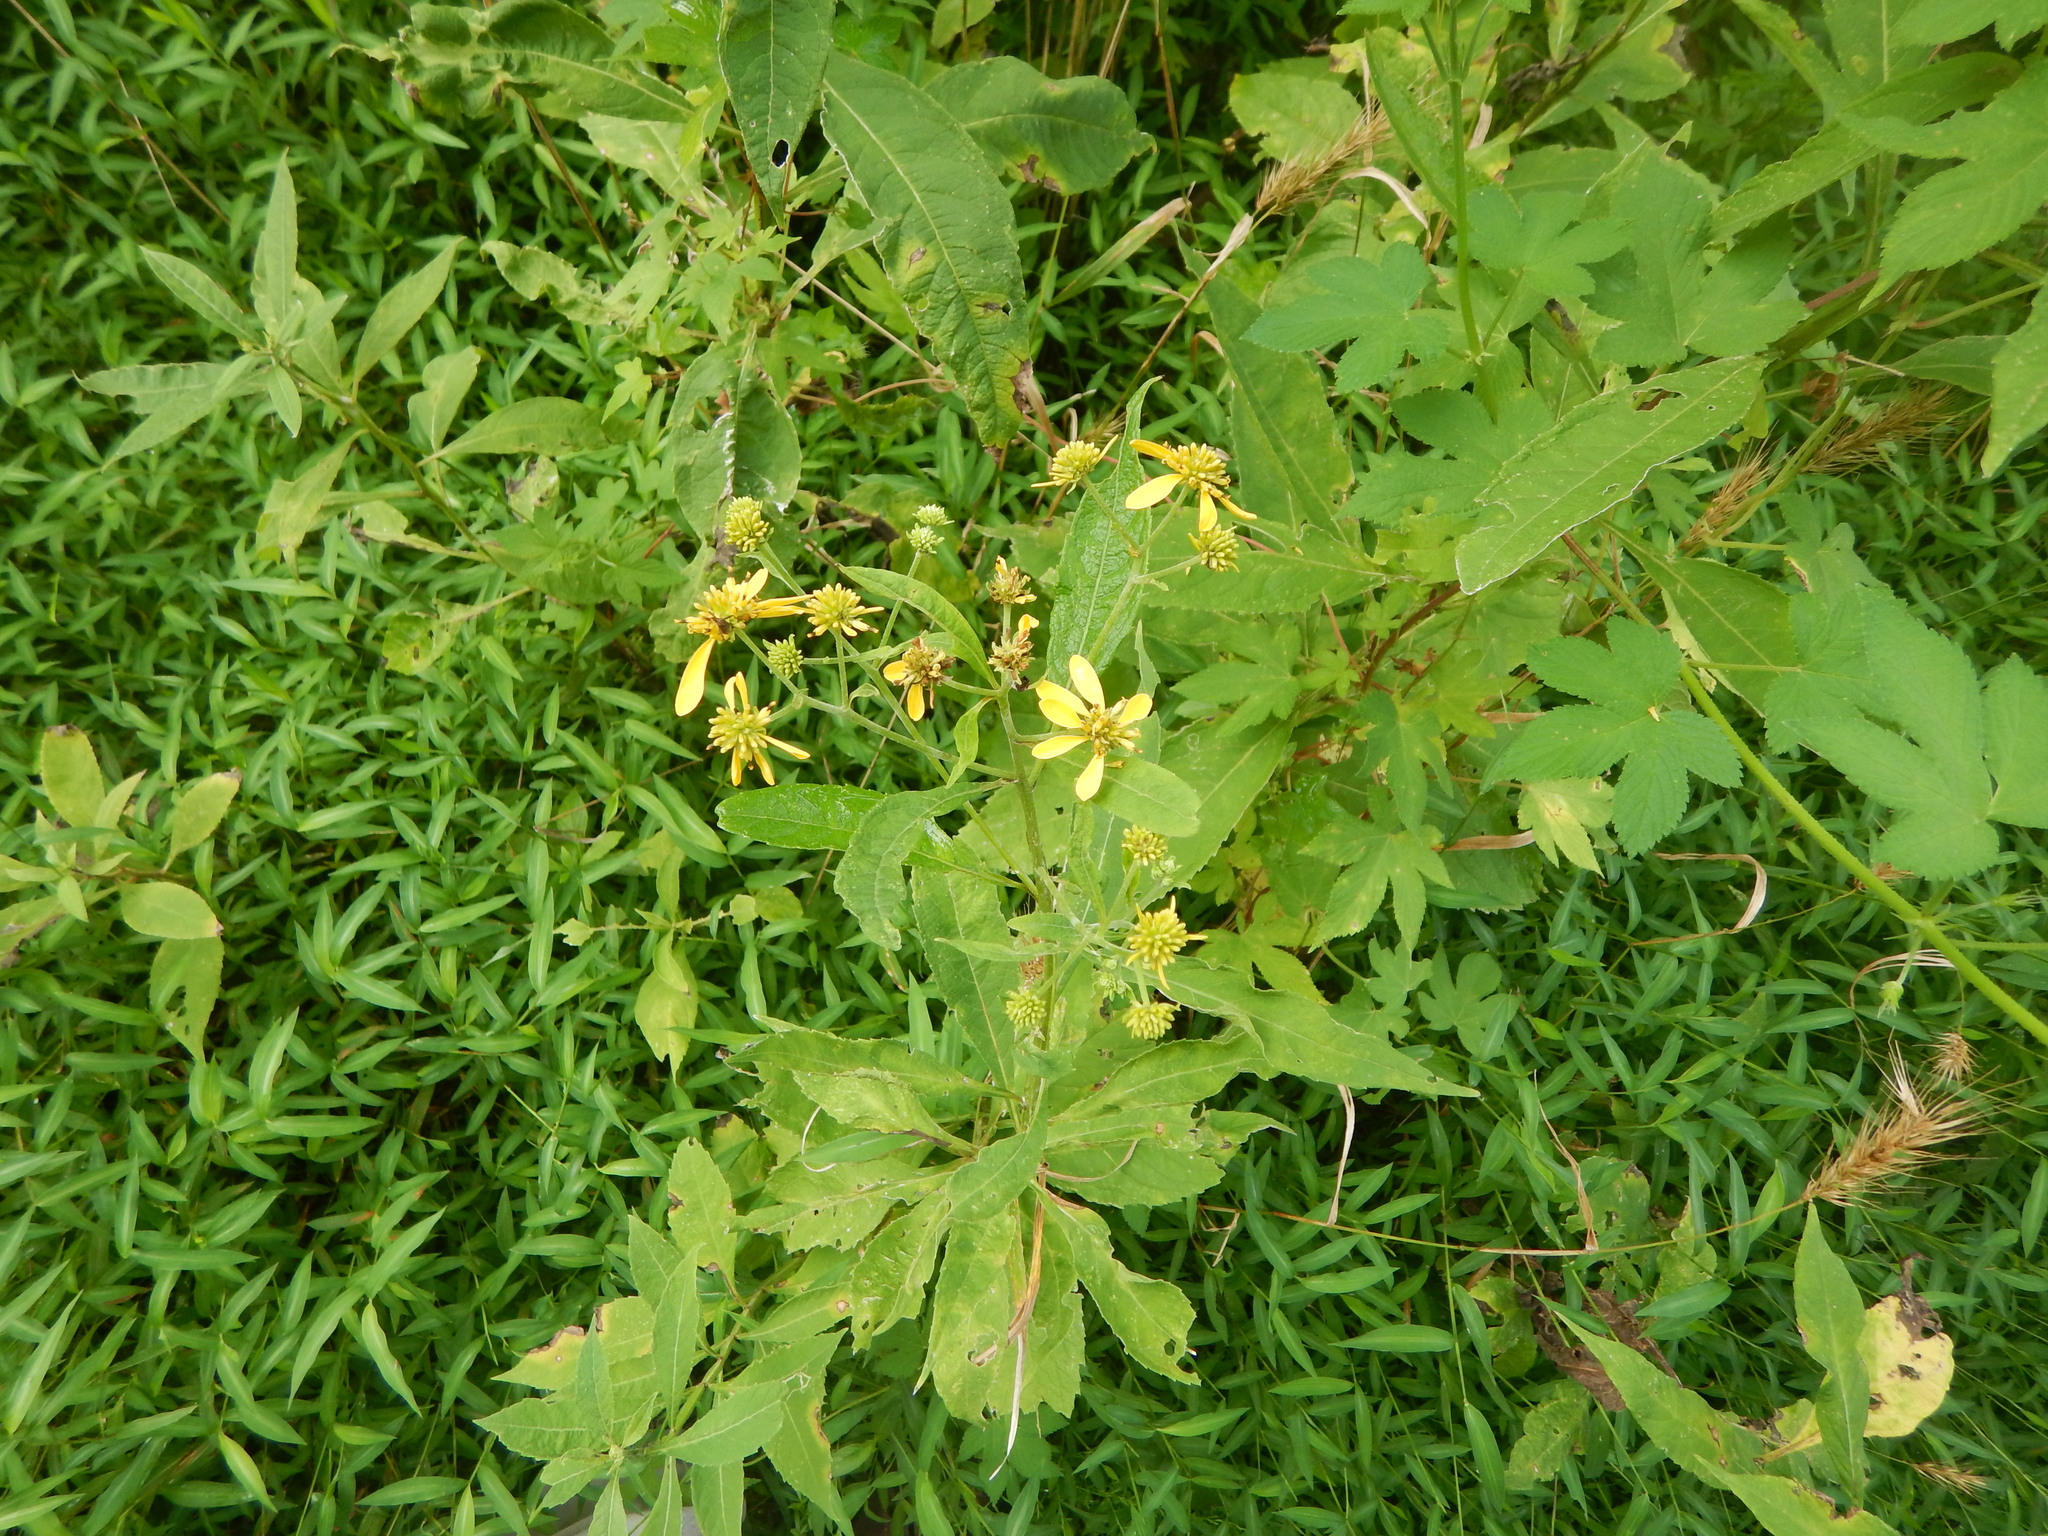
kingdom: Plantae
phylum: Tracheophyta
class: Magnoliopsida
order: Asterales
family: Asteraceae
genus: Verbesina
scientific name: Verbesina alternifolia
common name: Wingstem
